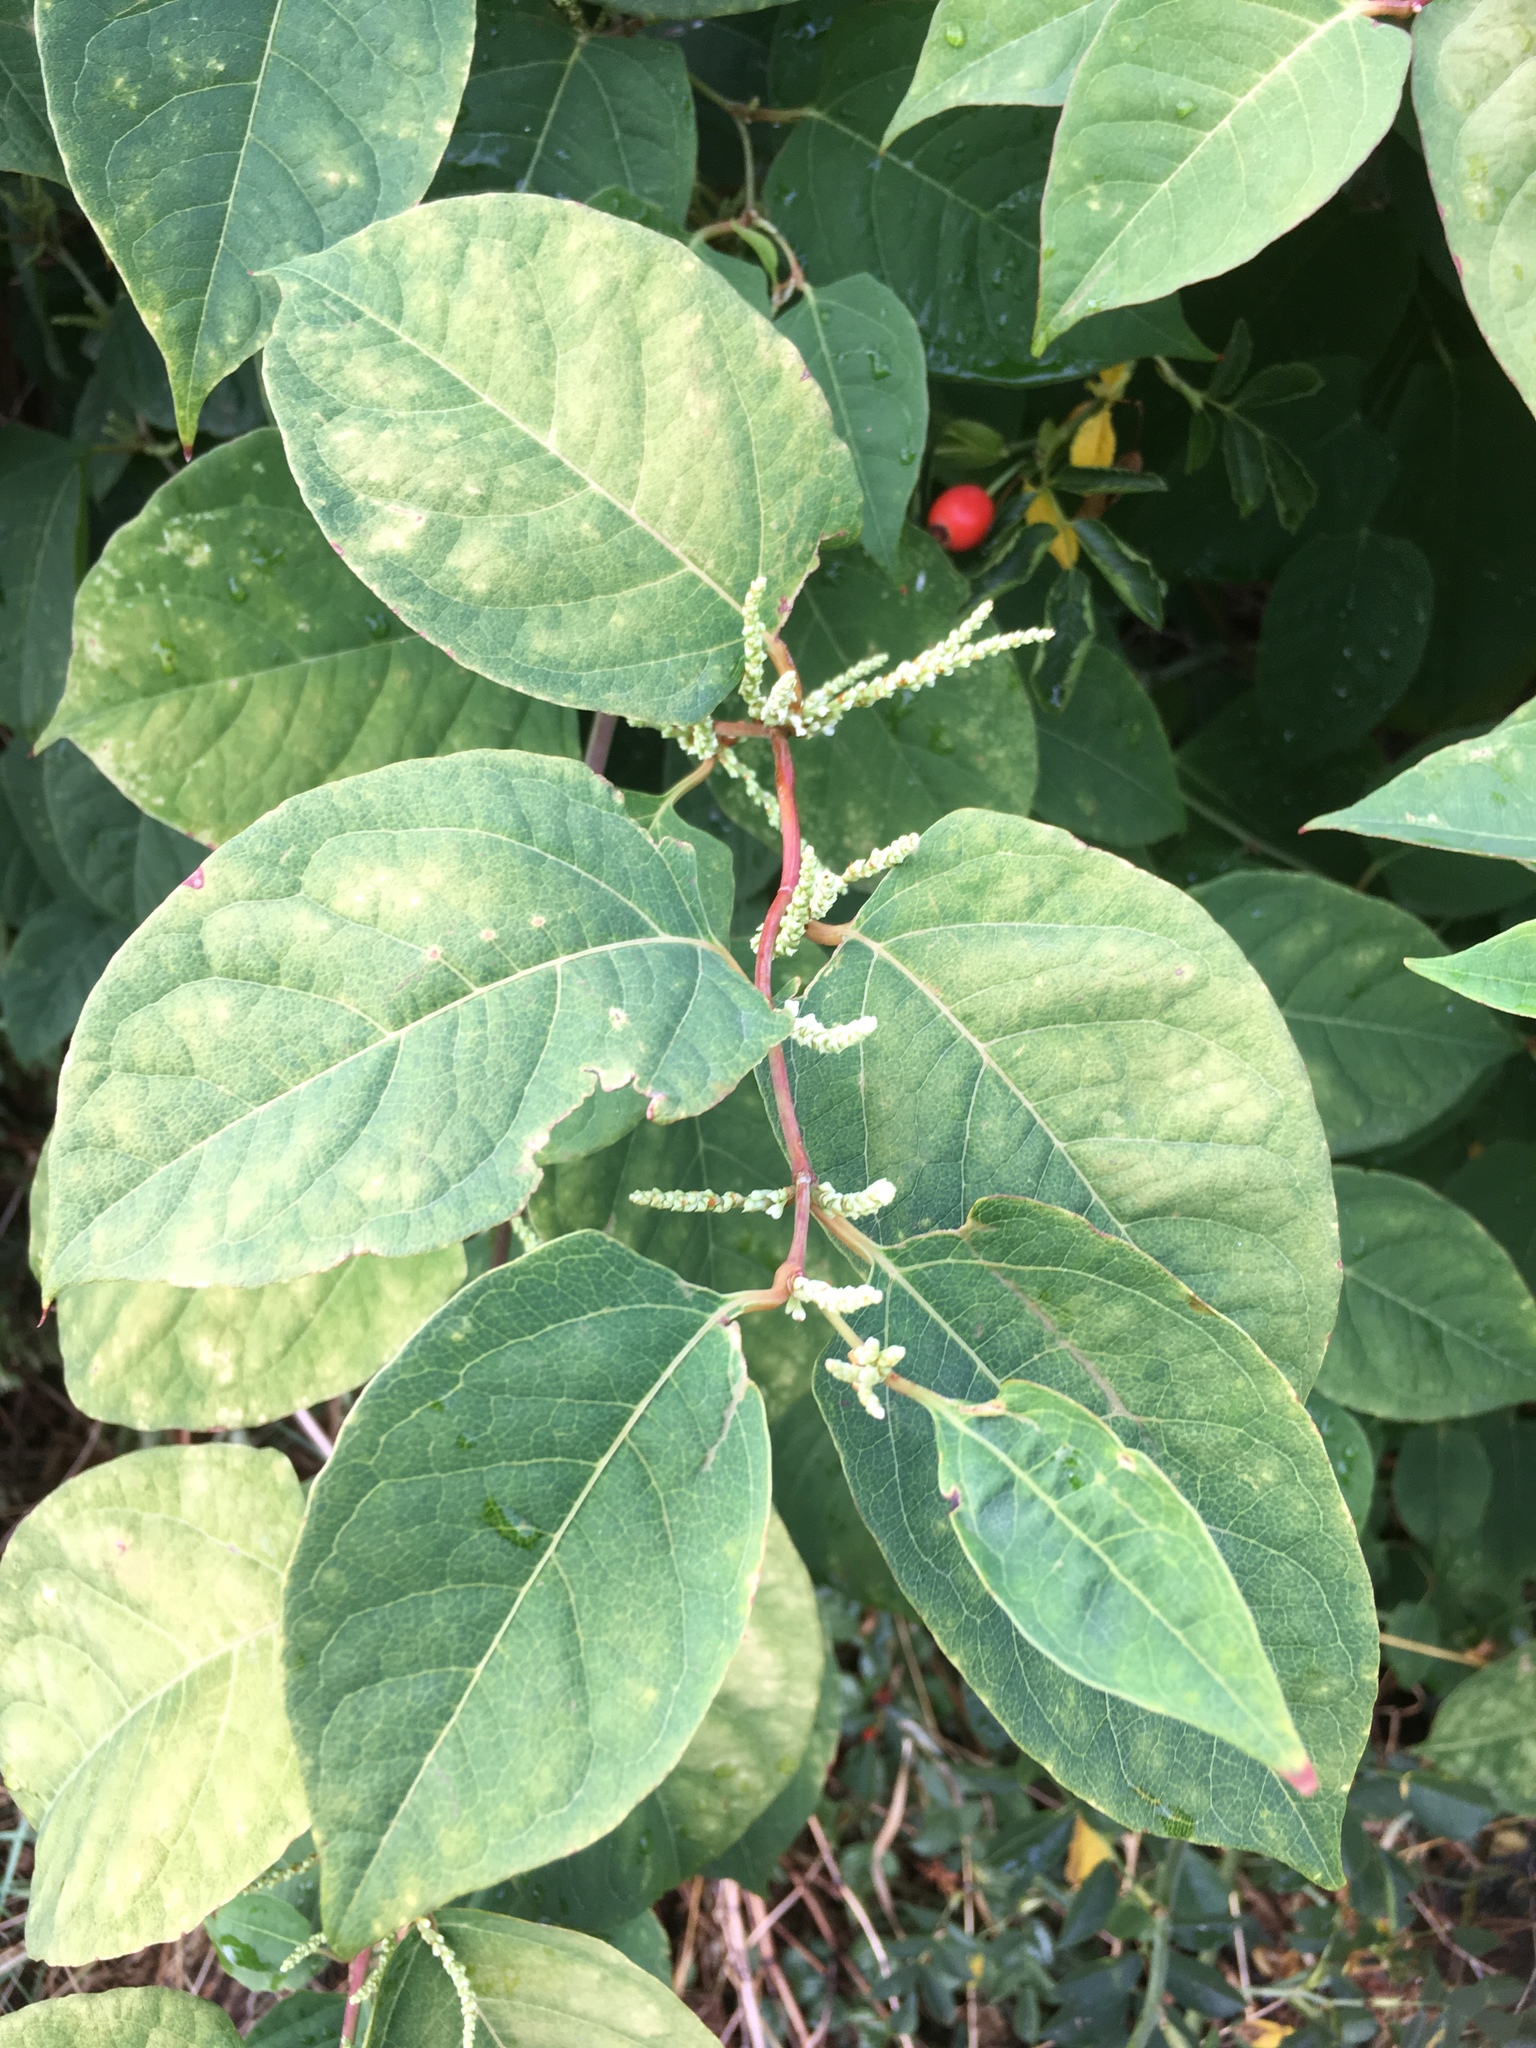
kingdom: Plantae
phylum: Tracheophyta
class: Magnoliopsida
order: Caryophyllales
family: Polygonaceae
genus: Reynoutria
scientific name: Reynoutria japonica
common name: Japanese knotweed
